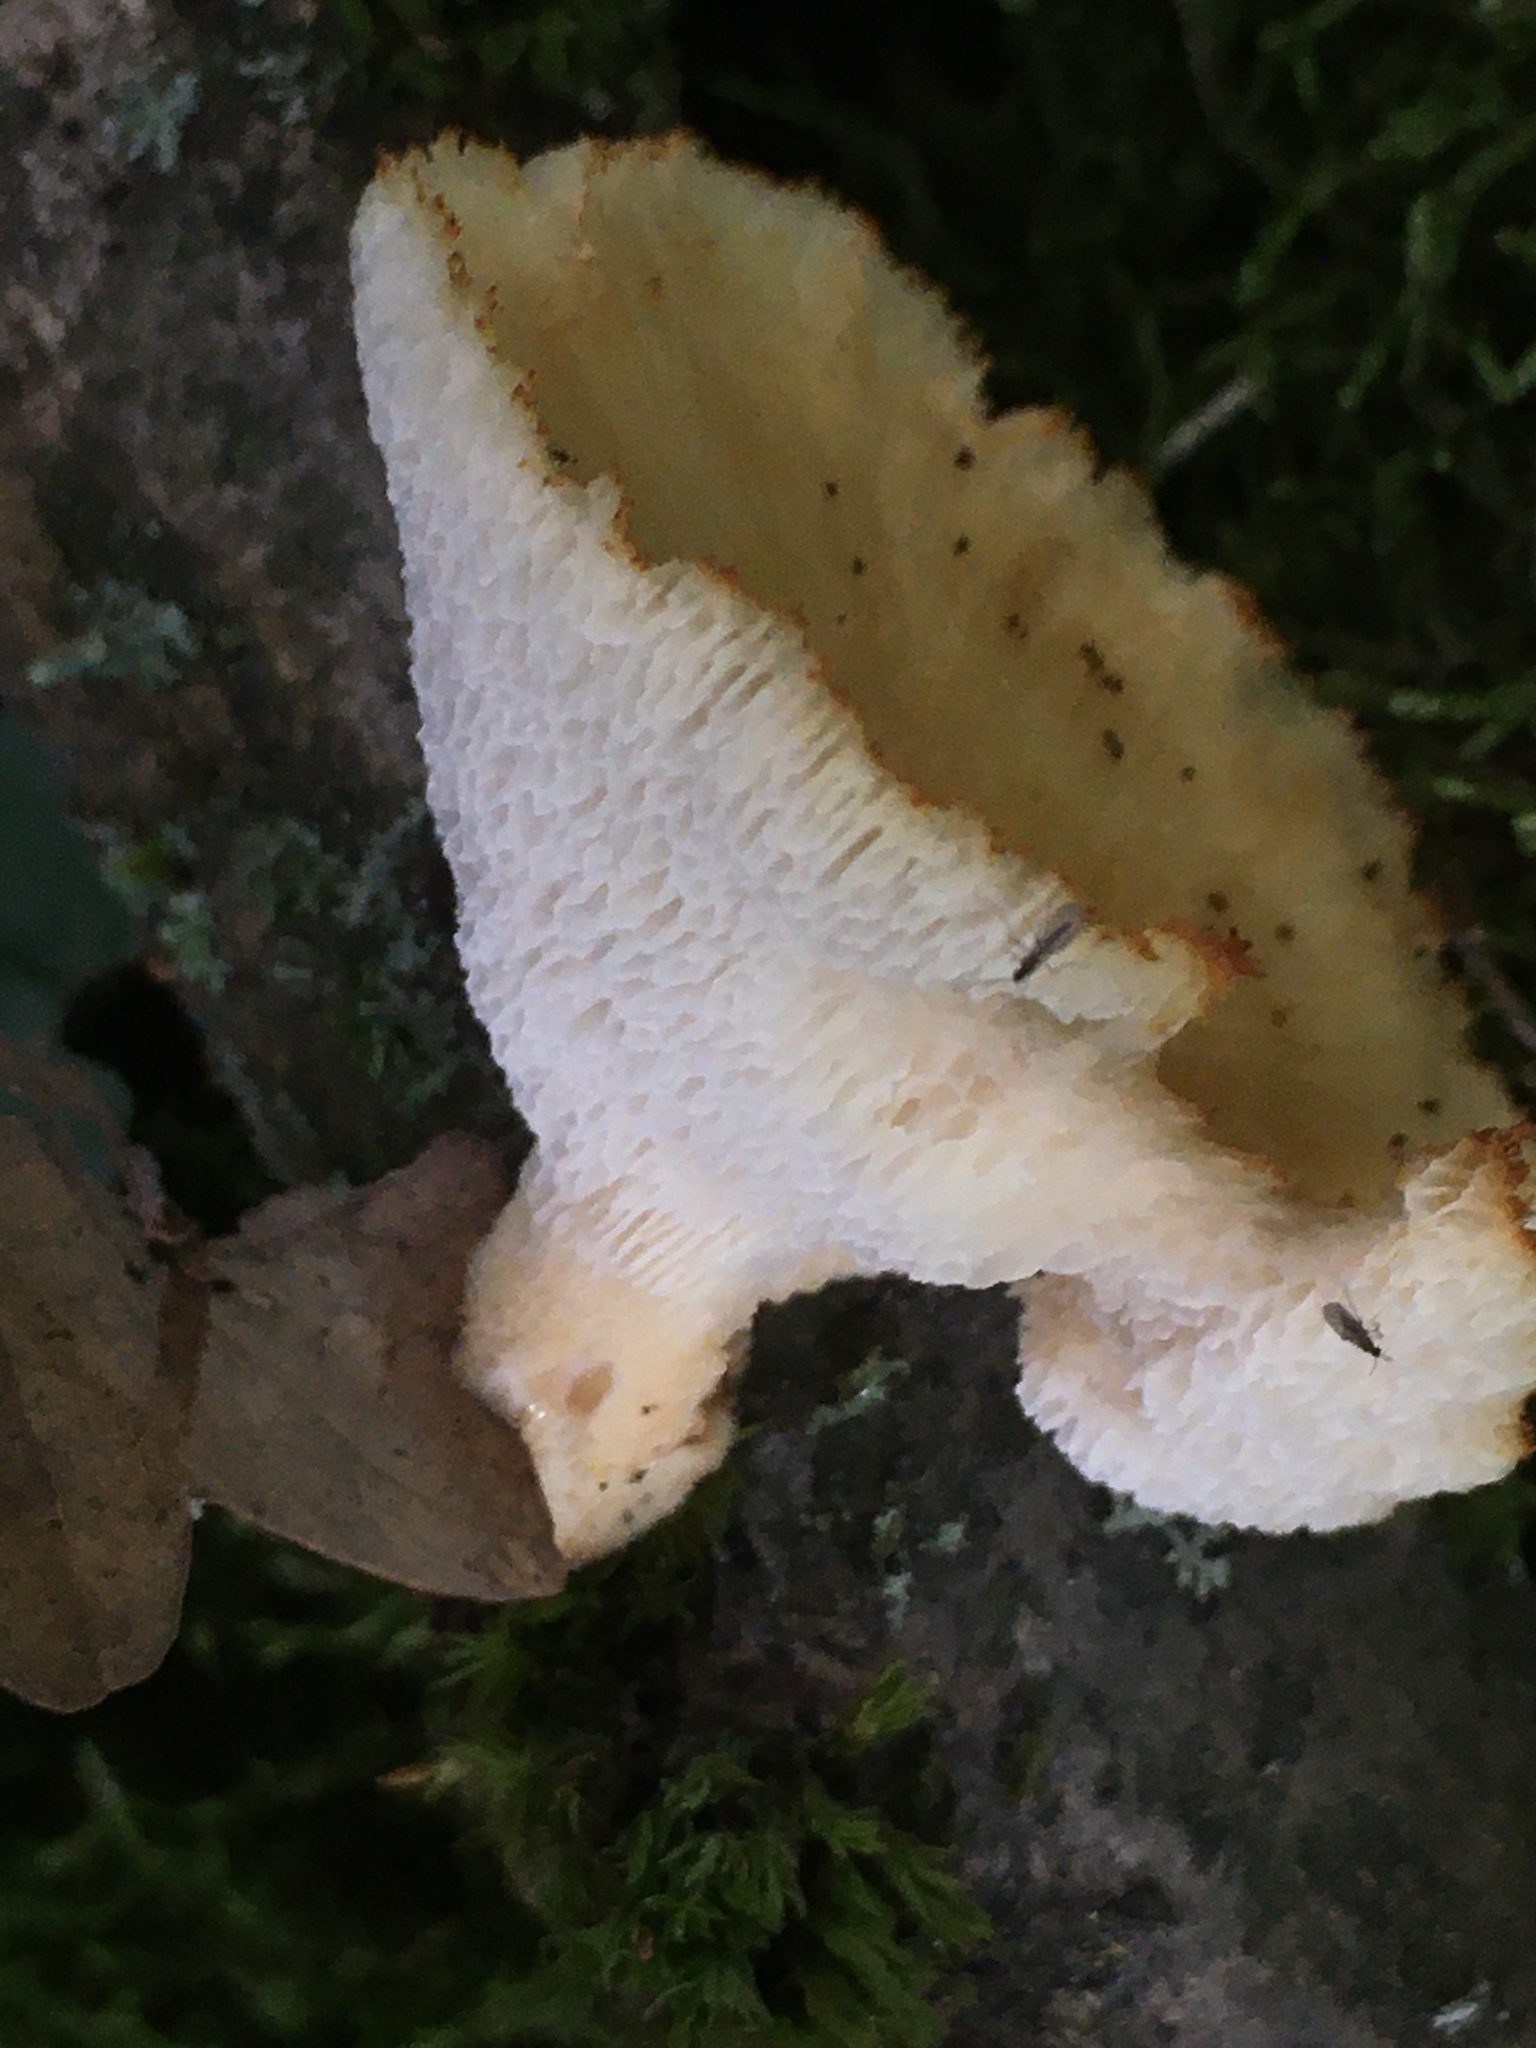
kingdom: Fungi
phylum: Basidiomycota
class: Agaricomycetes
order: Polyporales
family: Polyporaceae
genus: Polyporus
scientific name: Polyporus tuberaster
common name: Tuberous polypore
